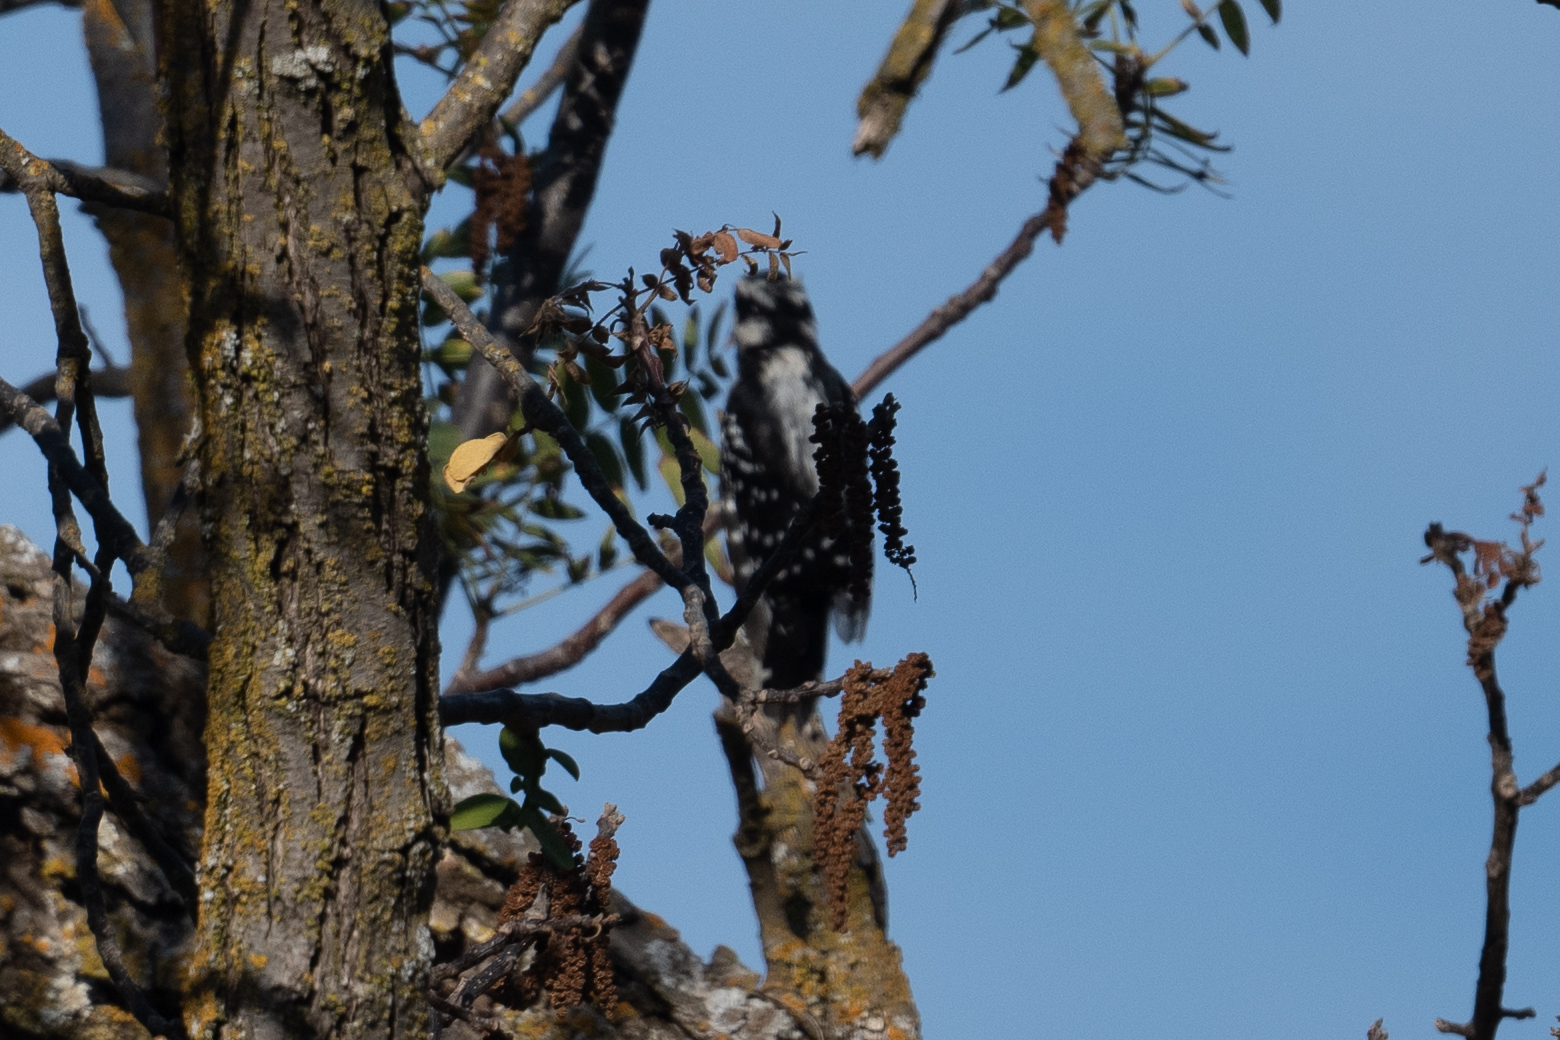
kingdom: Animalia
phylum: Chordata
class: Aves
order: Piciformes
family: Picidae
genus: Dryobates
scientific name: Dryobates pubescens
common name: Downy woodpecker
